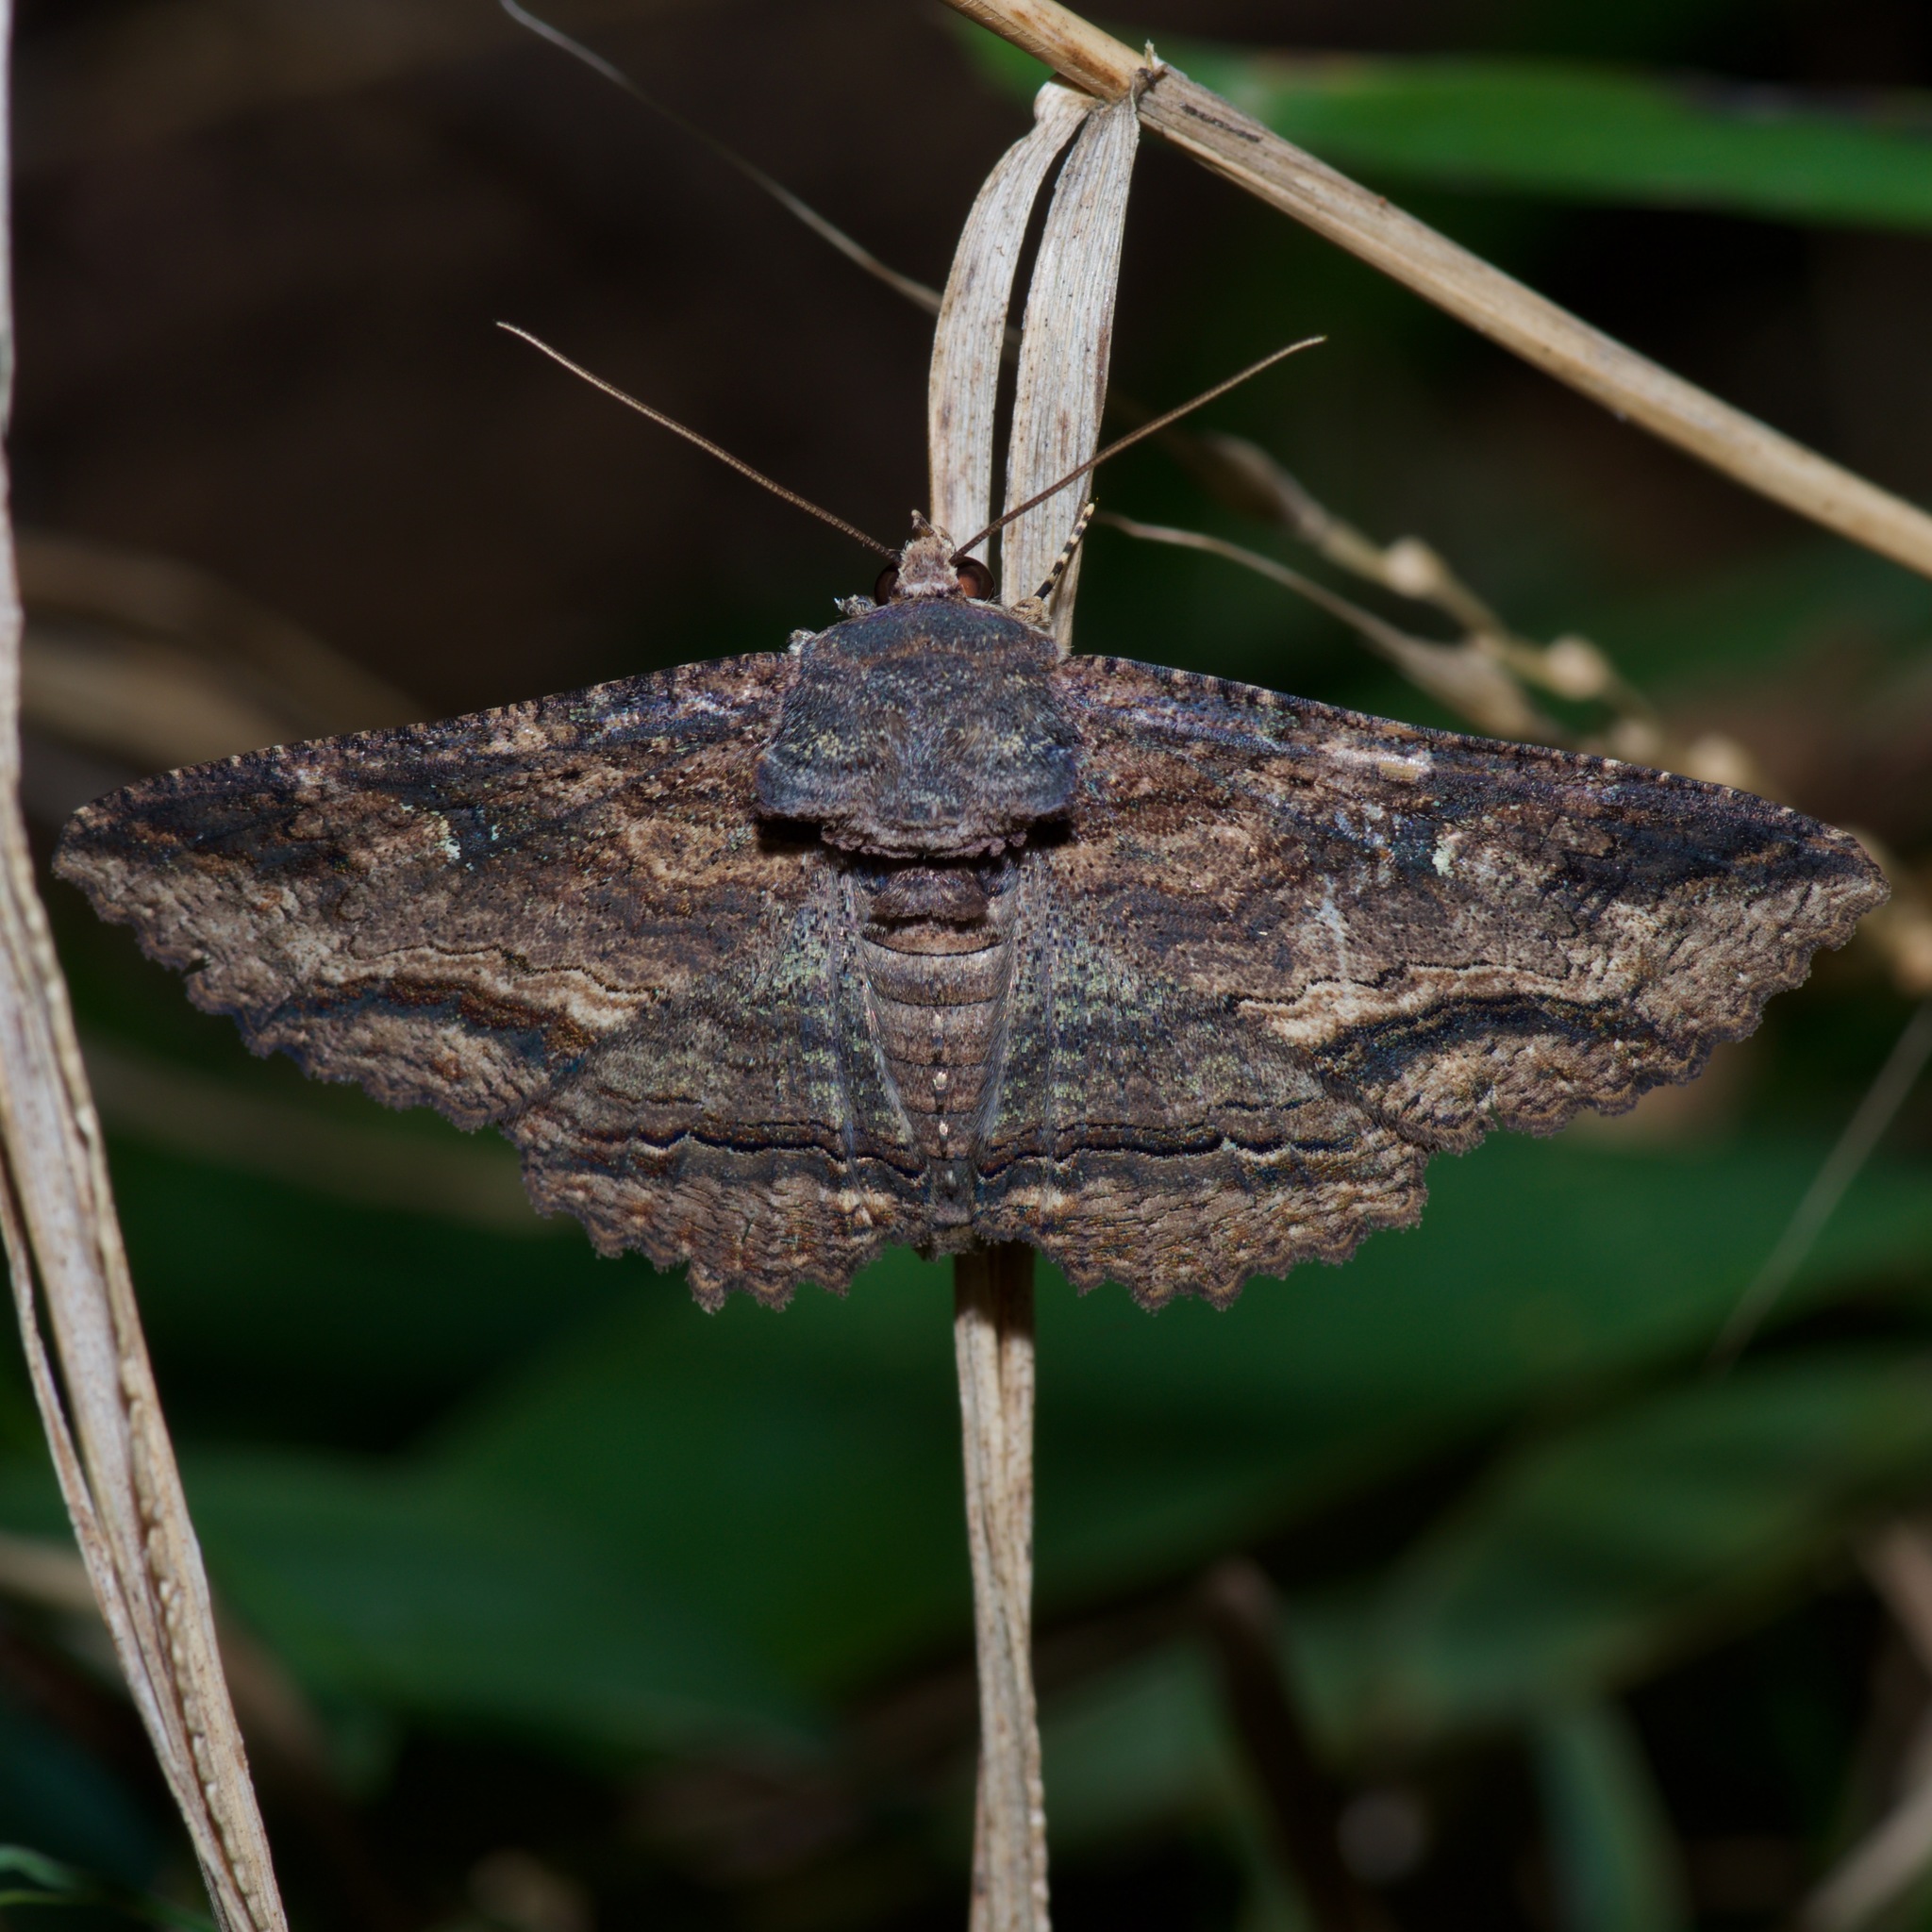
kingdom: Animalia
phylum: Arthropoda
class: Insecta
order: Lepidoptera
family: Erebidae
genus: Zale
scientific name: Zale lunata
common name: Lunate zale moth
